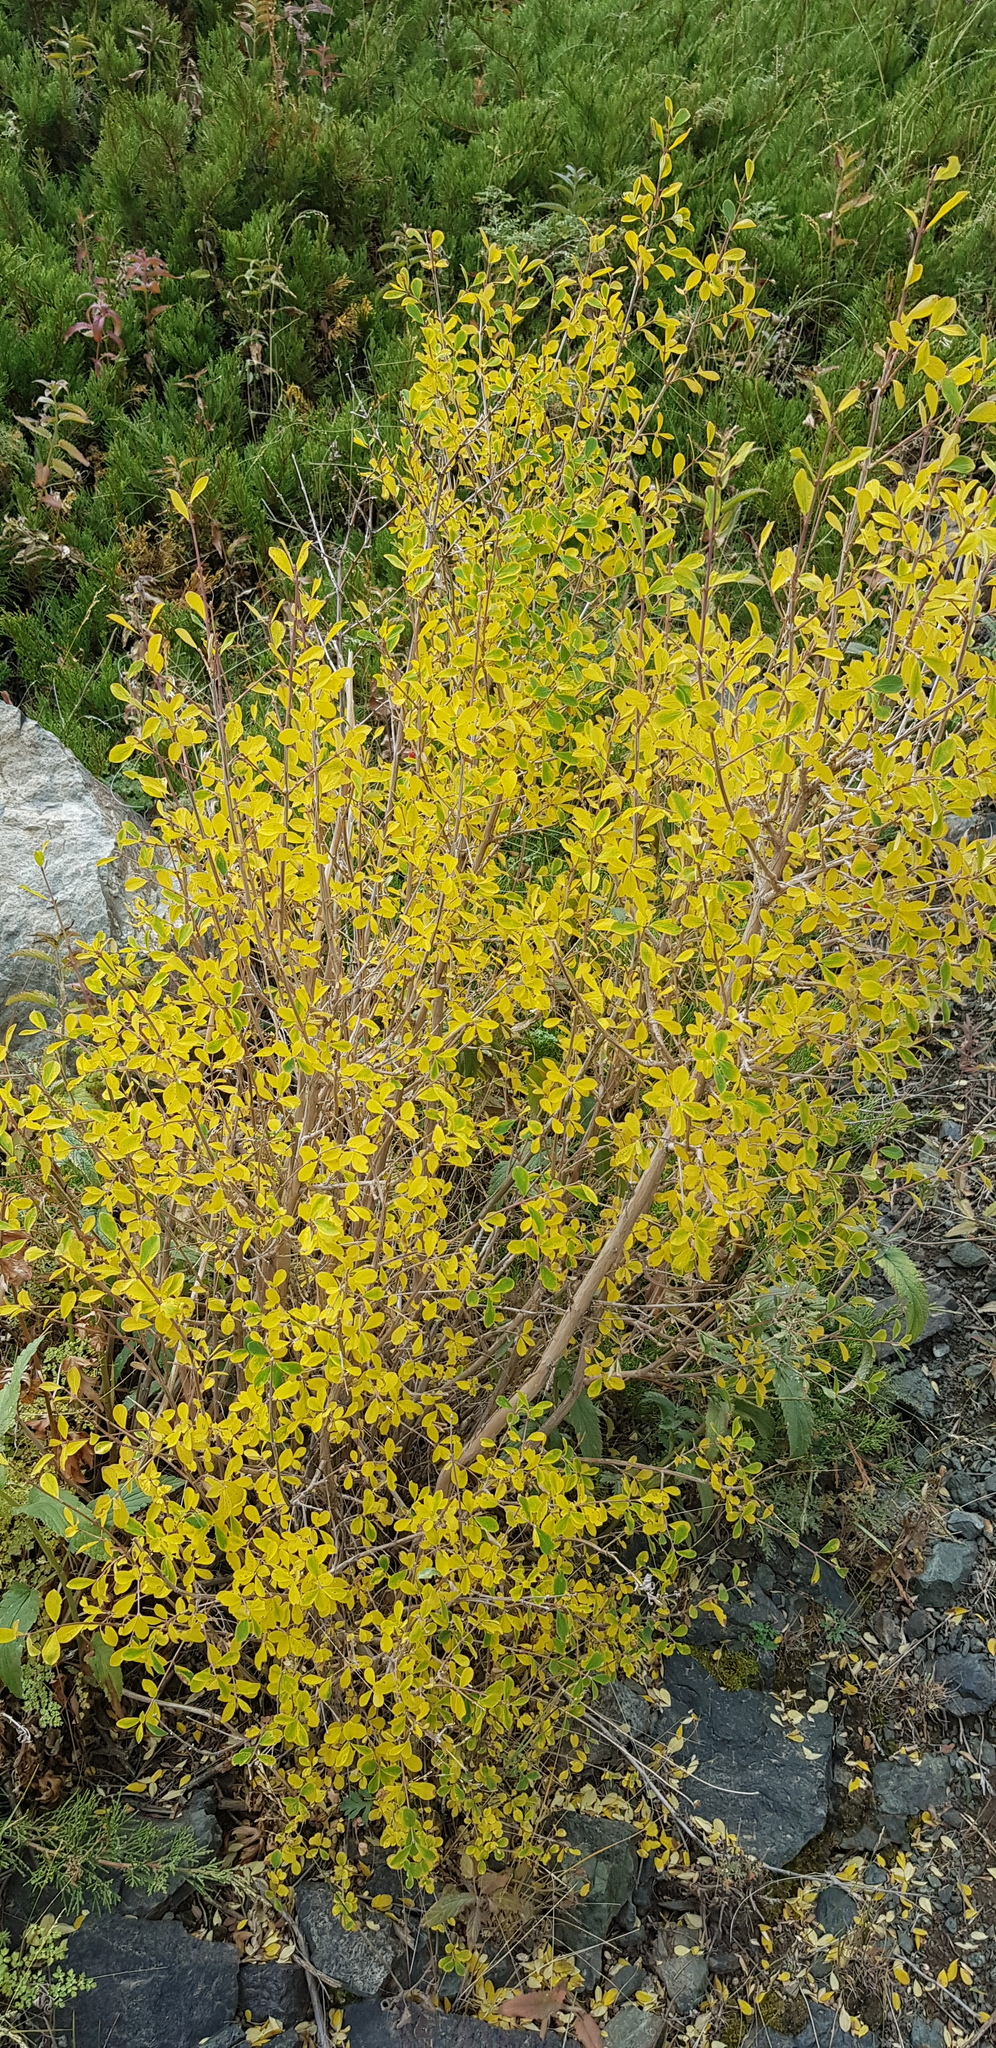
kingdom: Plantae
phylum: Tracheophyta
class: Magnoliopsida
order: Dipsacales
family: Caprifoliaceae
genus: Lonicera
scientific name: Lonicera microphylla
